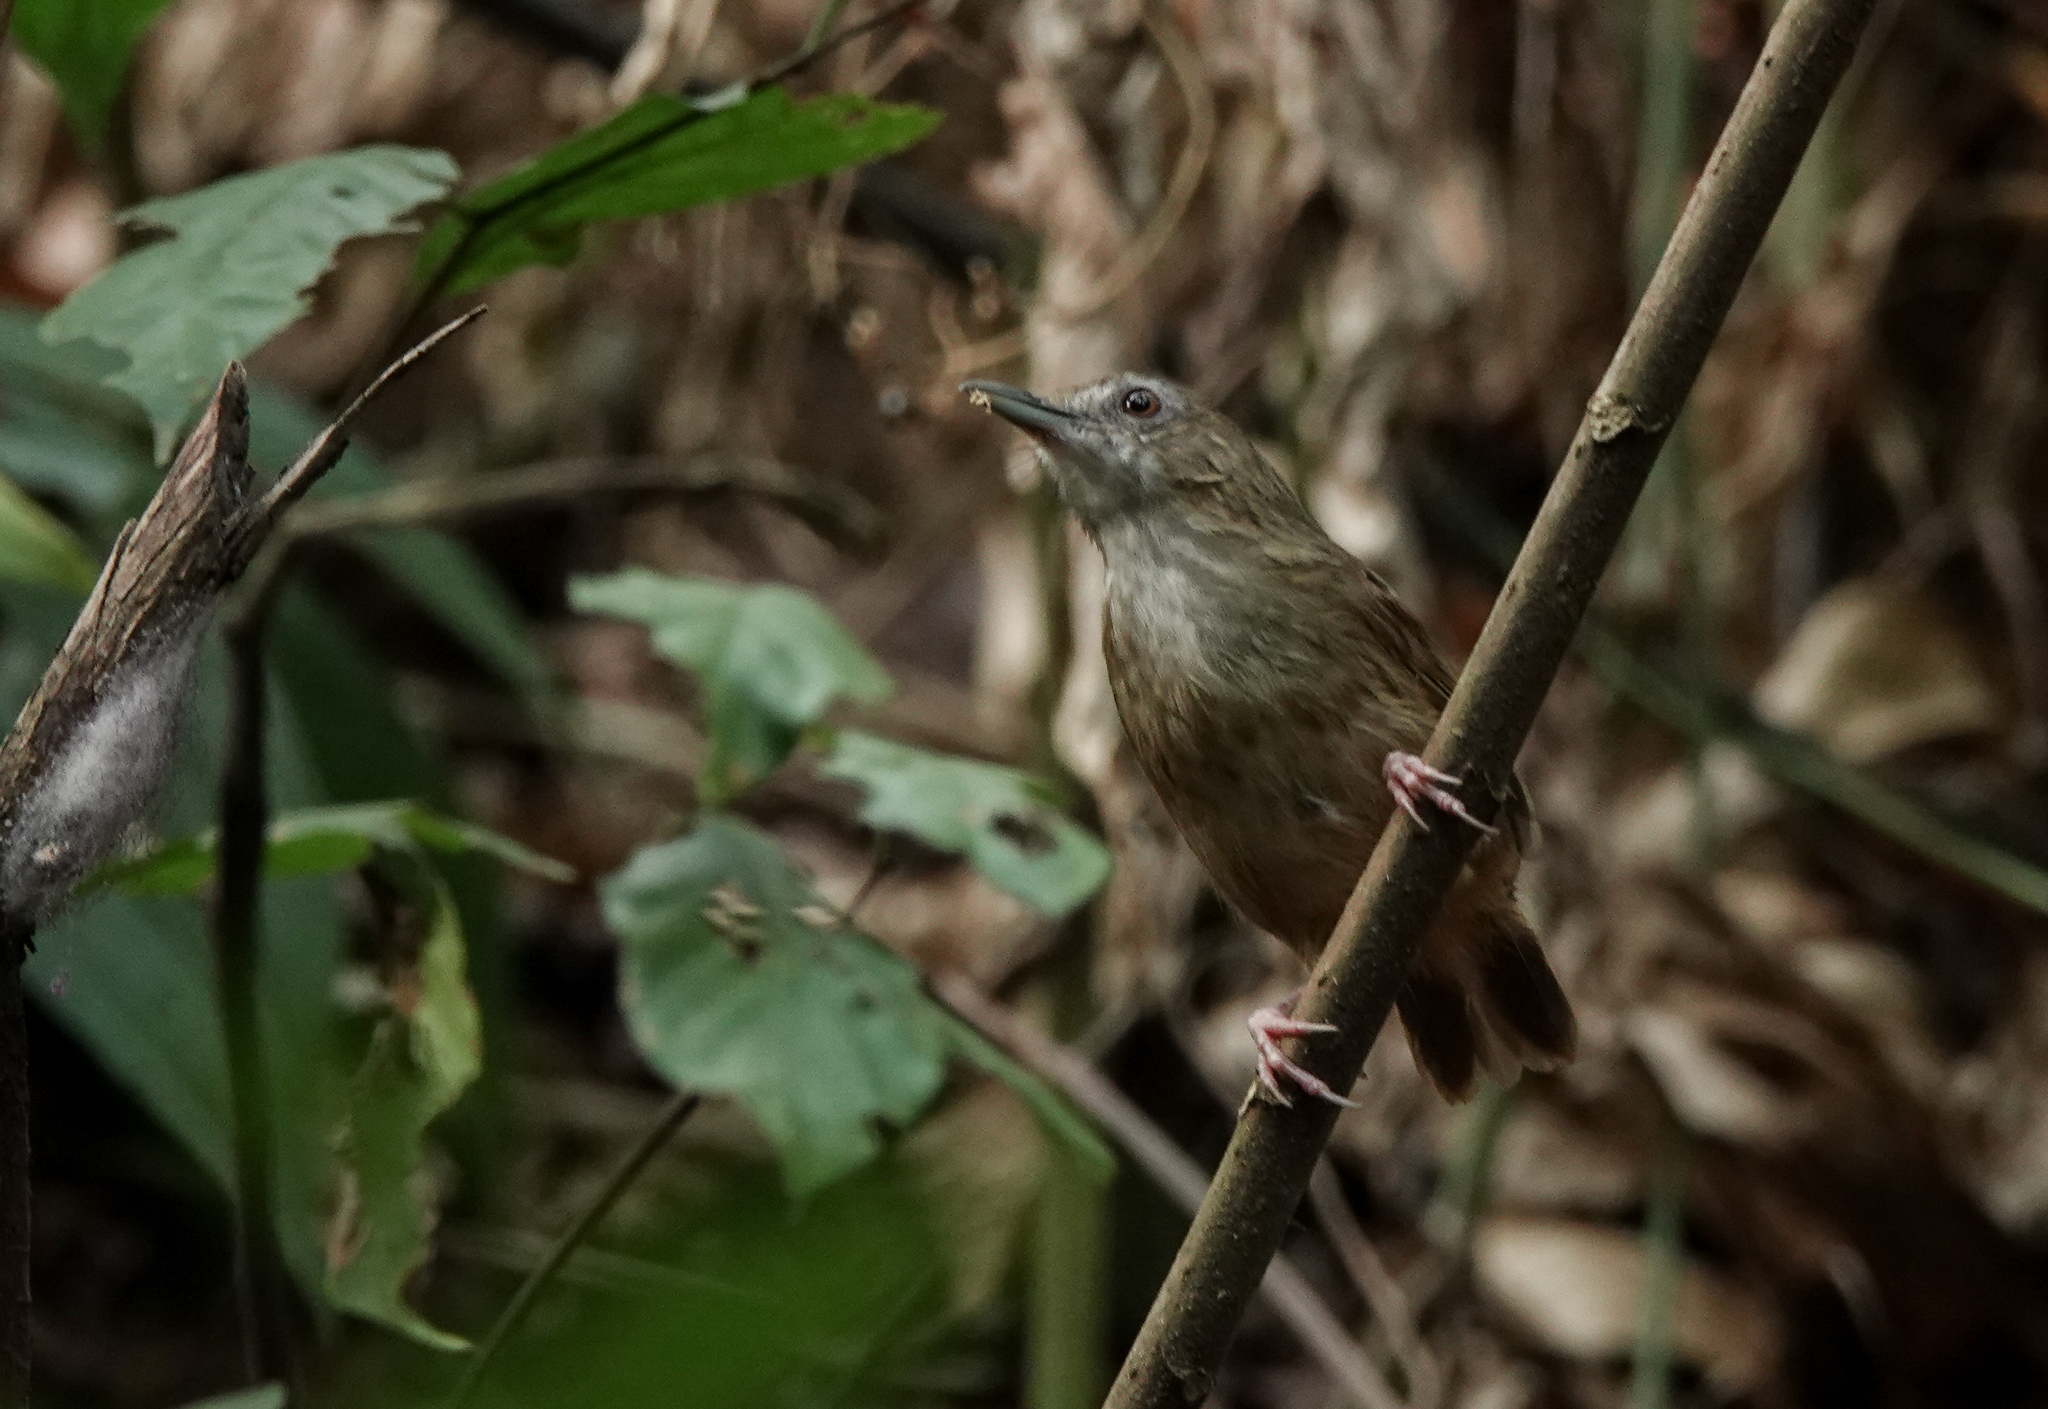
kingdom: Animalia
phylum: Chordata
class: Aves
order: Passeriformes
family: Pellorneidae
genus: Malacocincla
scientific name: Malacocincla abbotti
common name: Abbott's babbler
